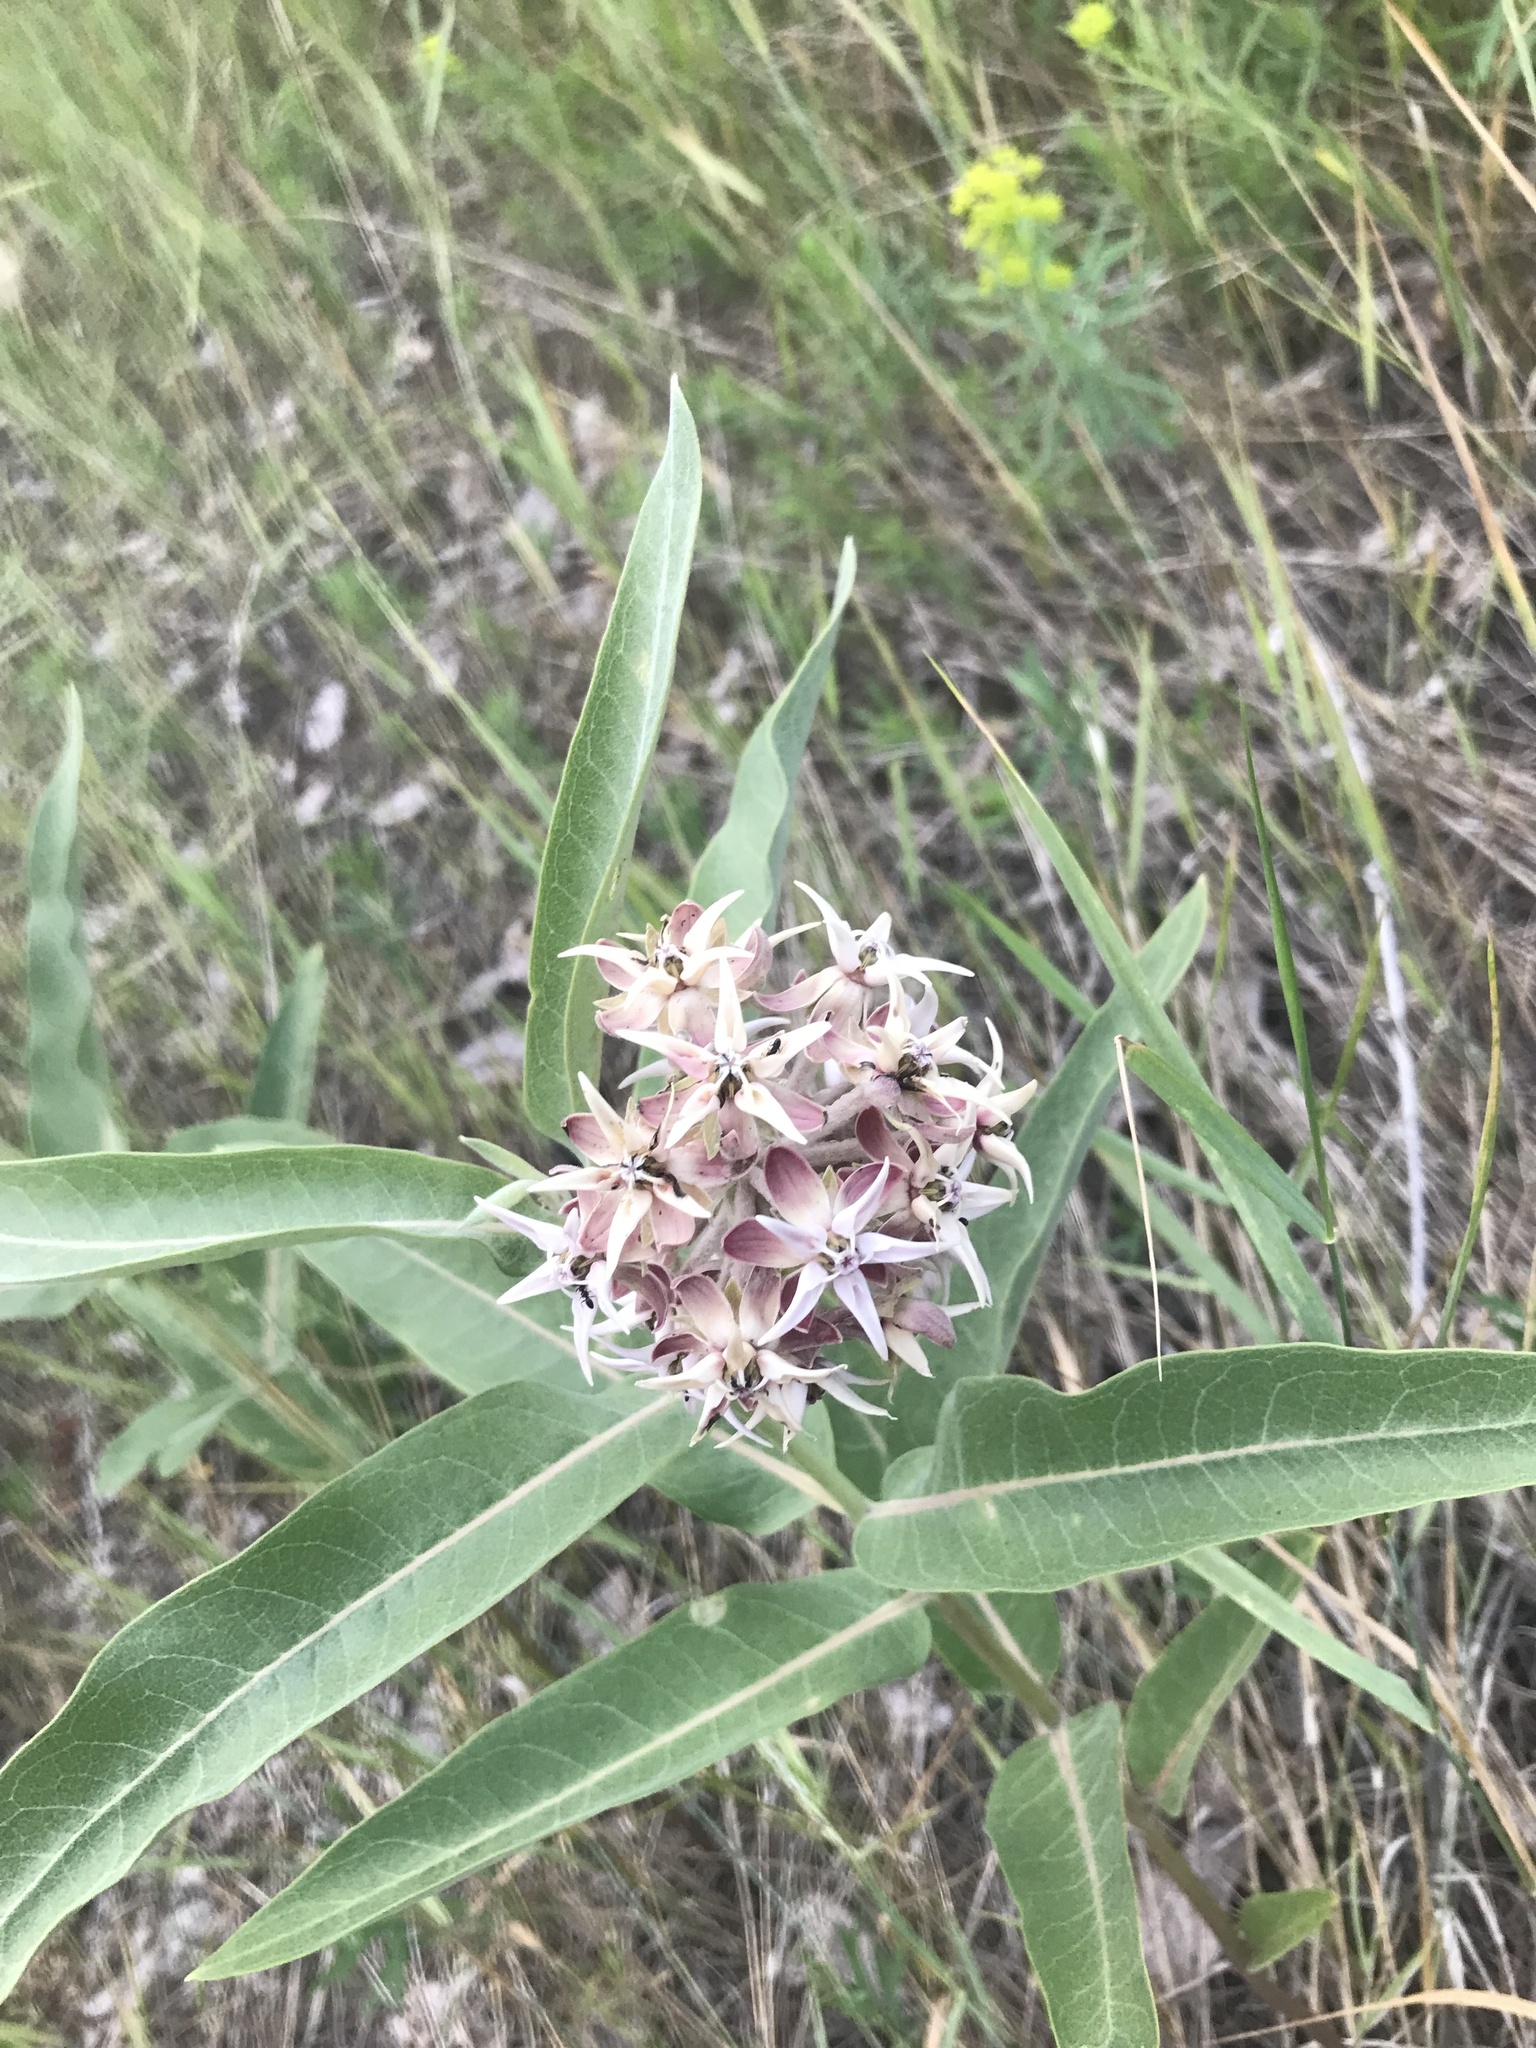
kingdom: Plantae
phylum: Tracheophyta
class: Magnoliopsida
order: Gentianales
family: Apocynaceae
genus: Asclepias
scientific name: Asclepias speciosa
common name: Showy milkweed
